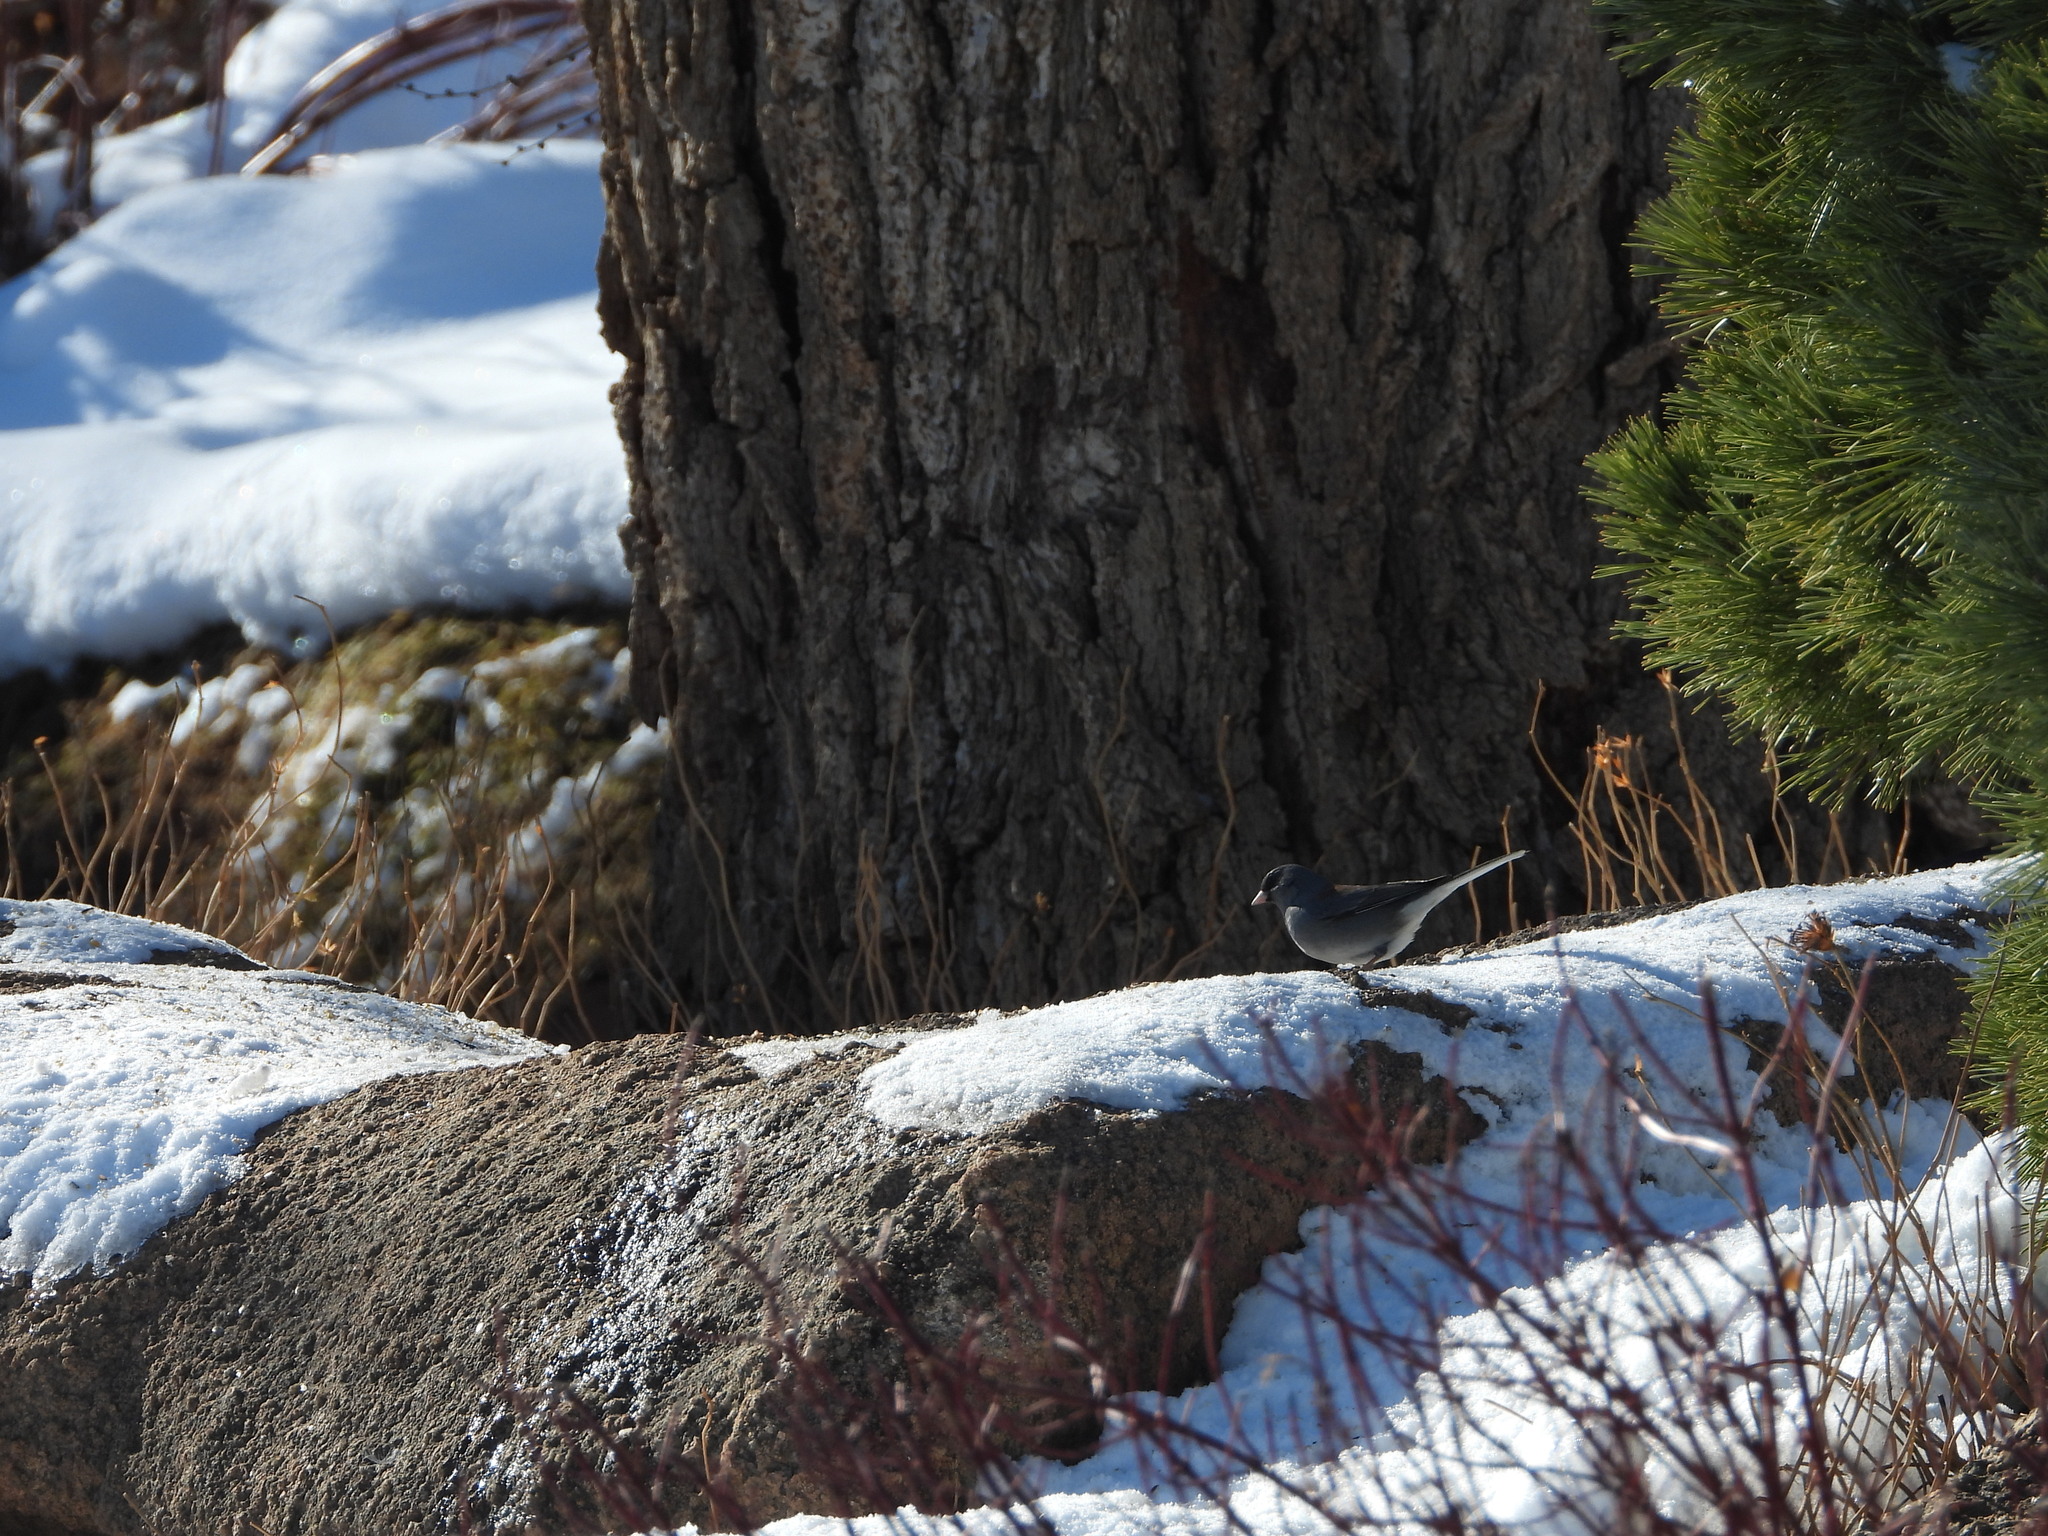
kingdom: Animalia
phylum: Chordata
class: Aves
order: Passeriformes
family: Passerellidae
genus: Junco
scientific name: Junco hyemalis
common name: Dark-eyed junco
